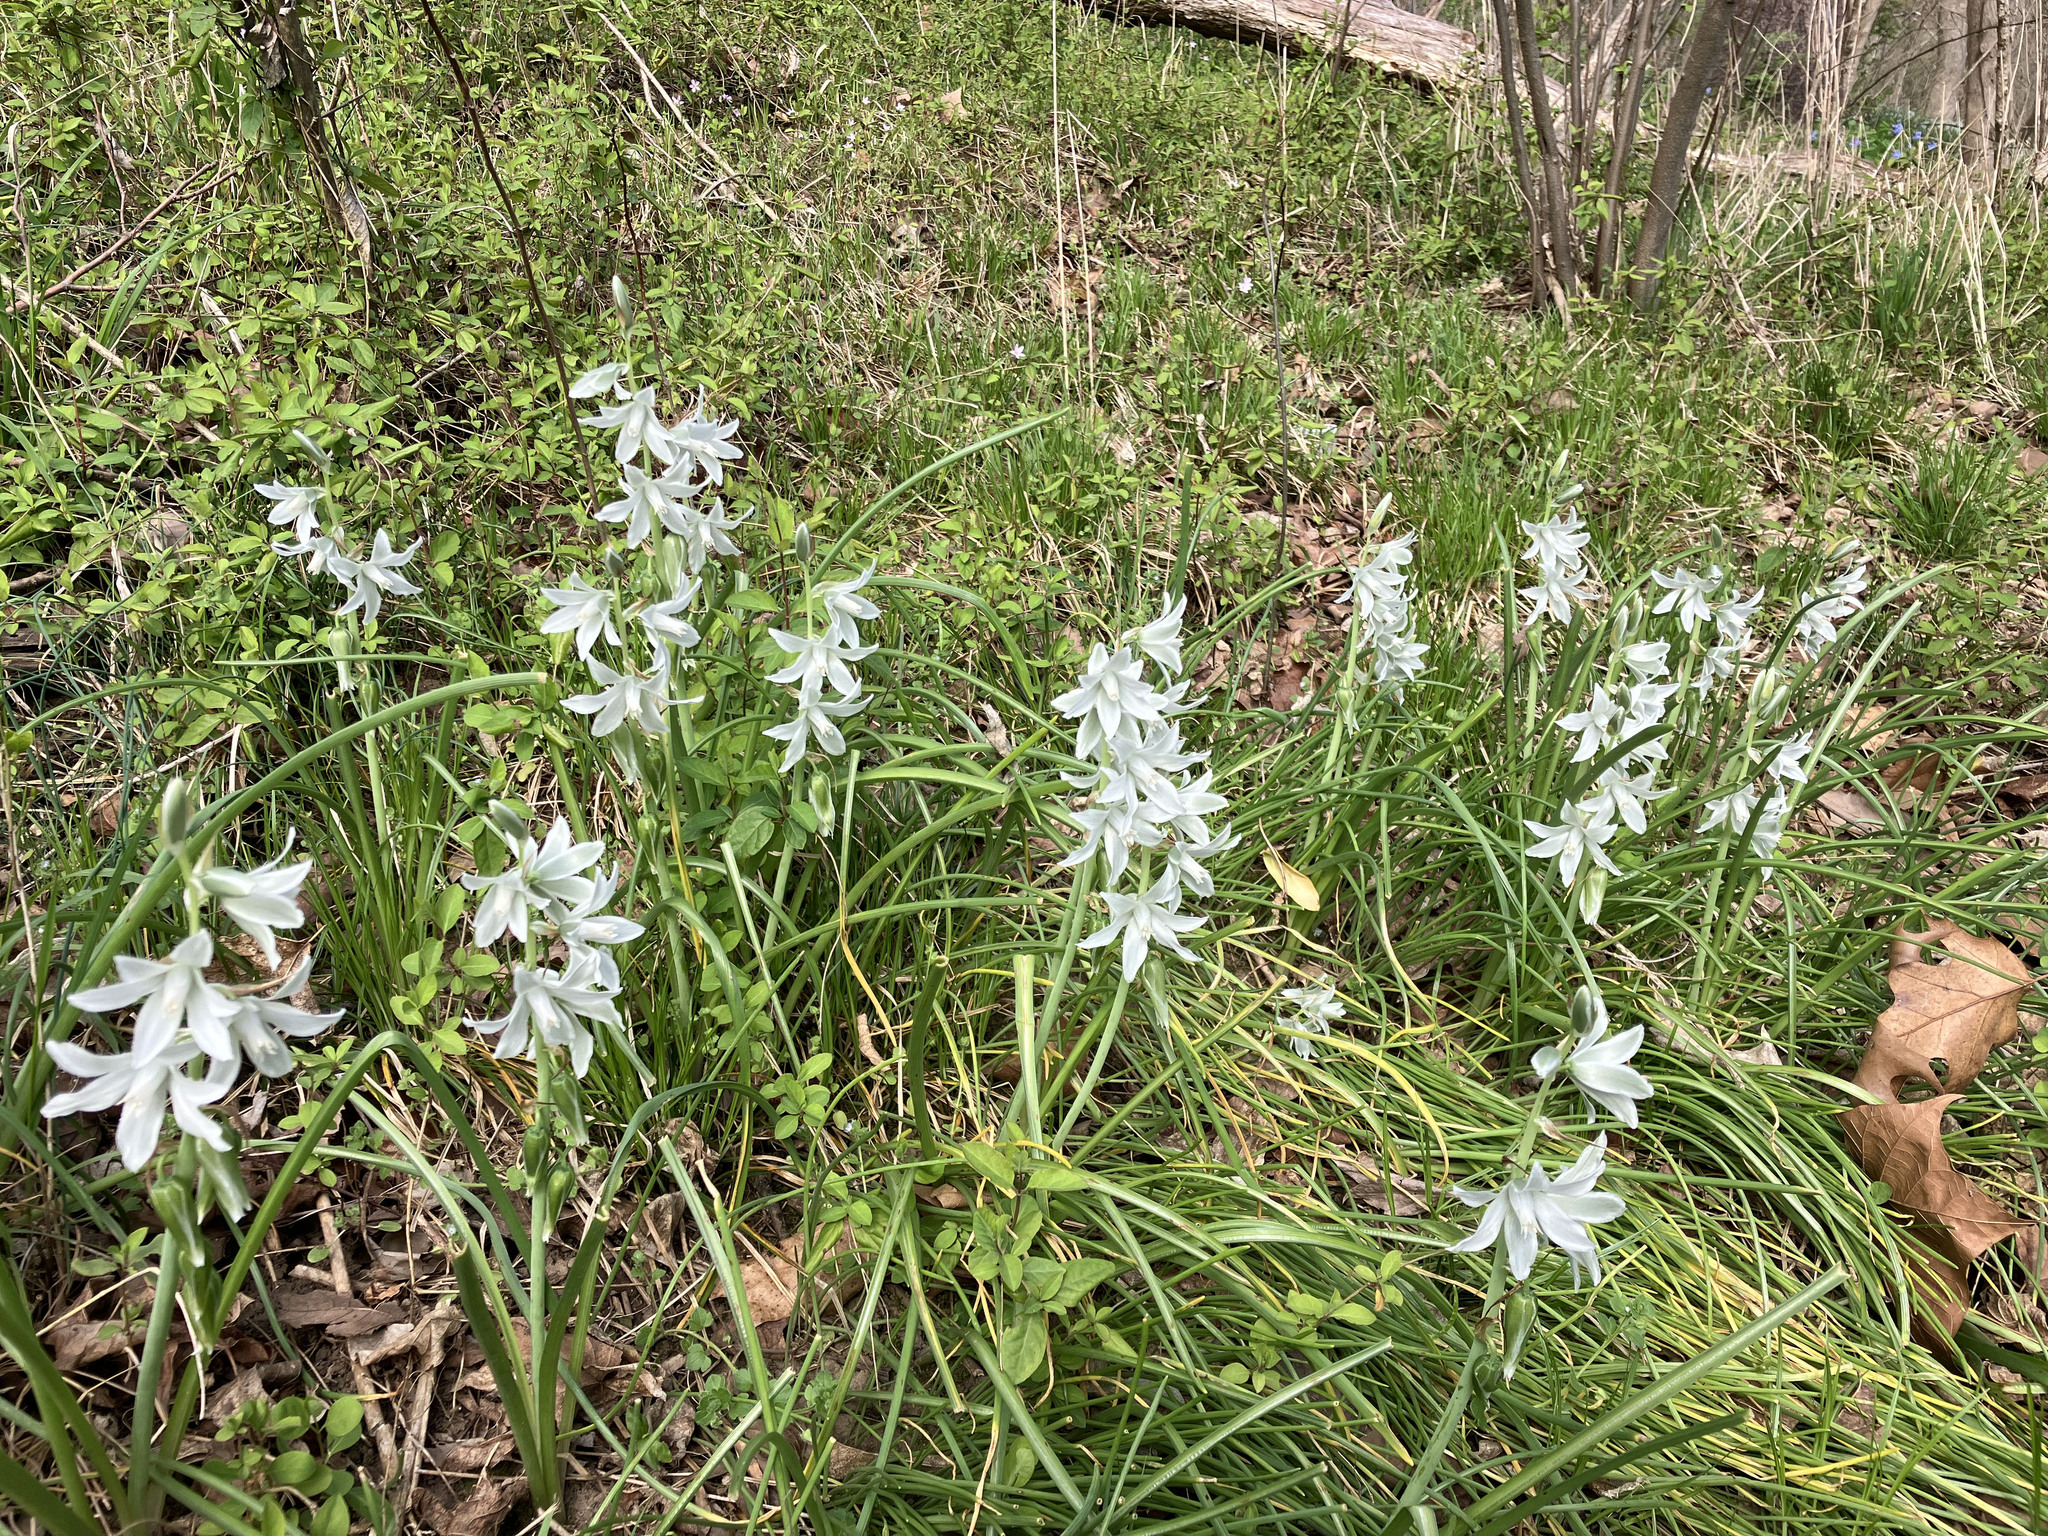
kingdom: Plantae
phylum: Tracheophyta
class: Liliopsida
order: Asparagales
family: Asparagaceae
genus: Ornithogalum
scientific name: Ornithogalum nutans
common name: Drooping star-of-bethlehem
